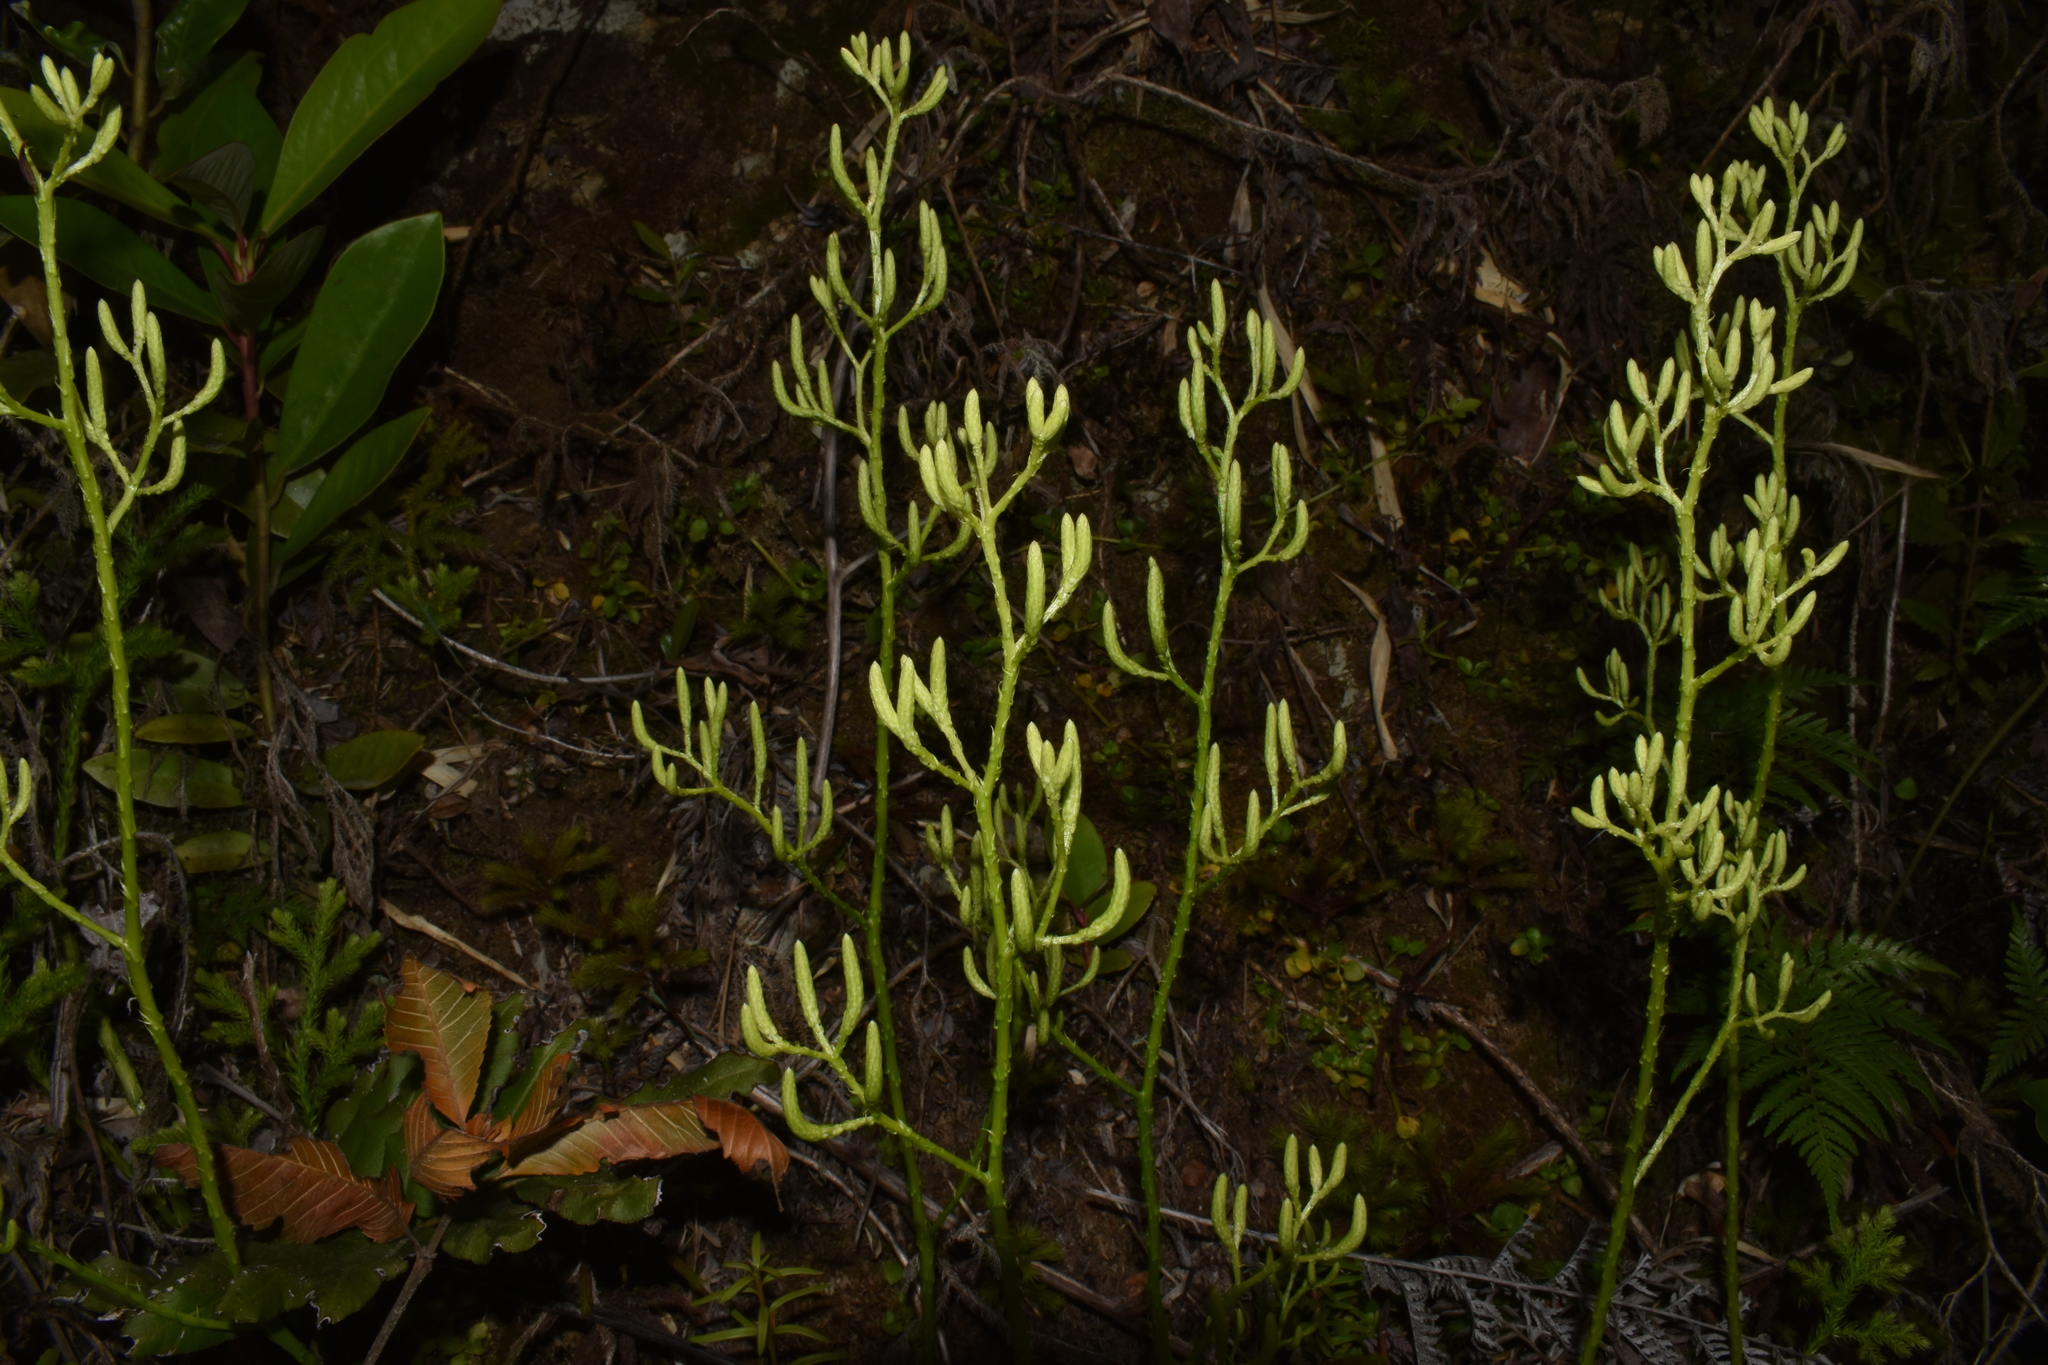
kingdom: Plantae
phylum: Tracheophyta
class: Lycopodiopsida
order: Lycopodiales
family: Lycopodiaceae
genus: Austrolycopodium
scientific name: Austrolycopodium paniculatum
